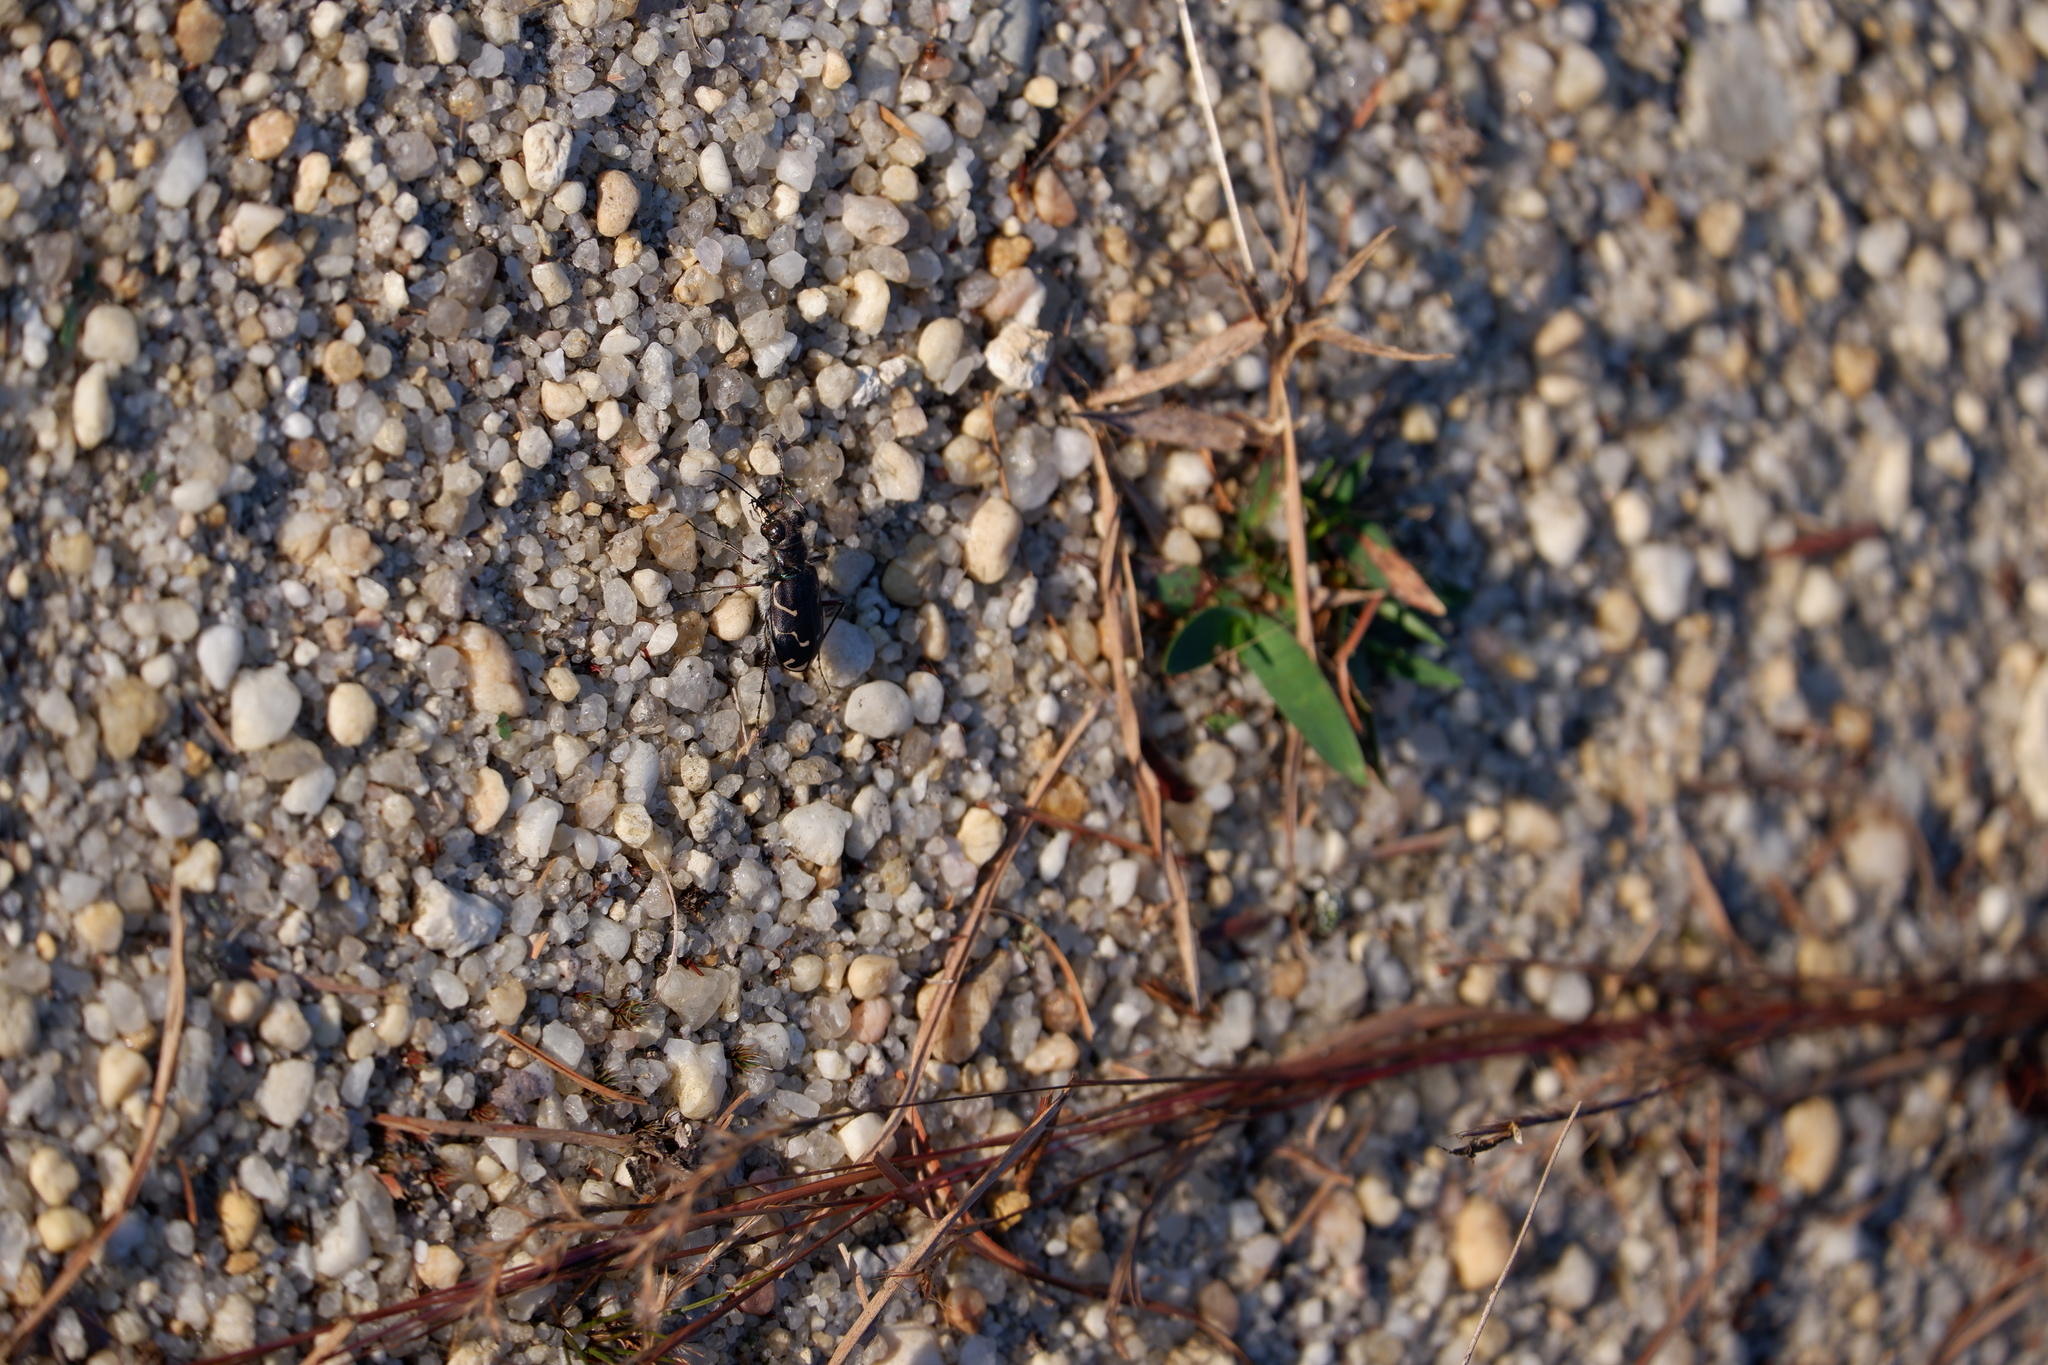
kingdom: Animalia
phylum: Arthropoda
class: Insecta
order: Coleoptera
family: Carabidae
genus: Cicindela
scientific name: Cicindela tranquebarica
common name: Oblique-lined tiger beetle
